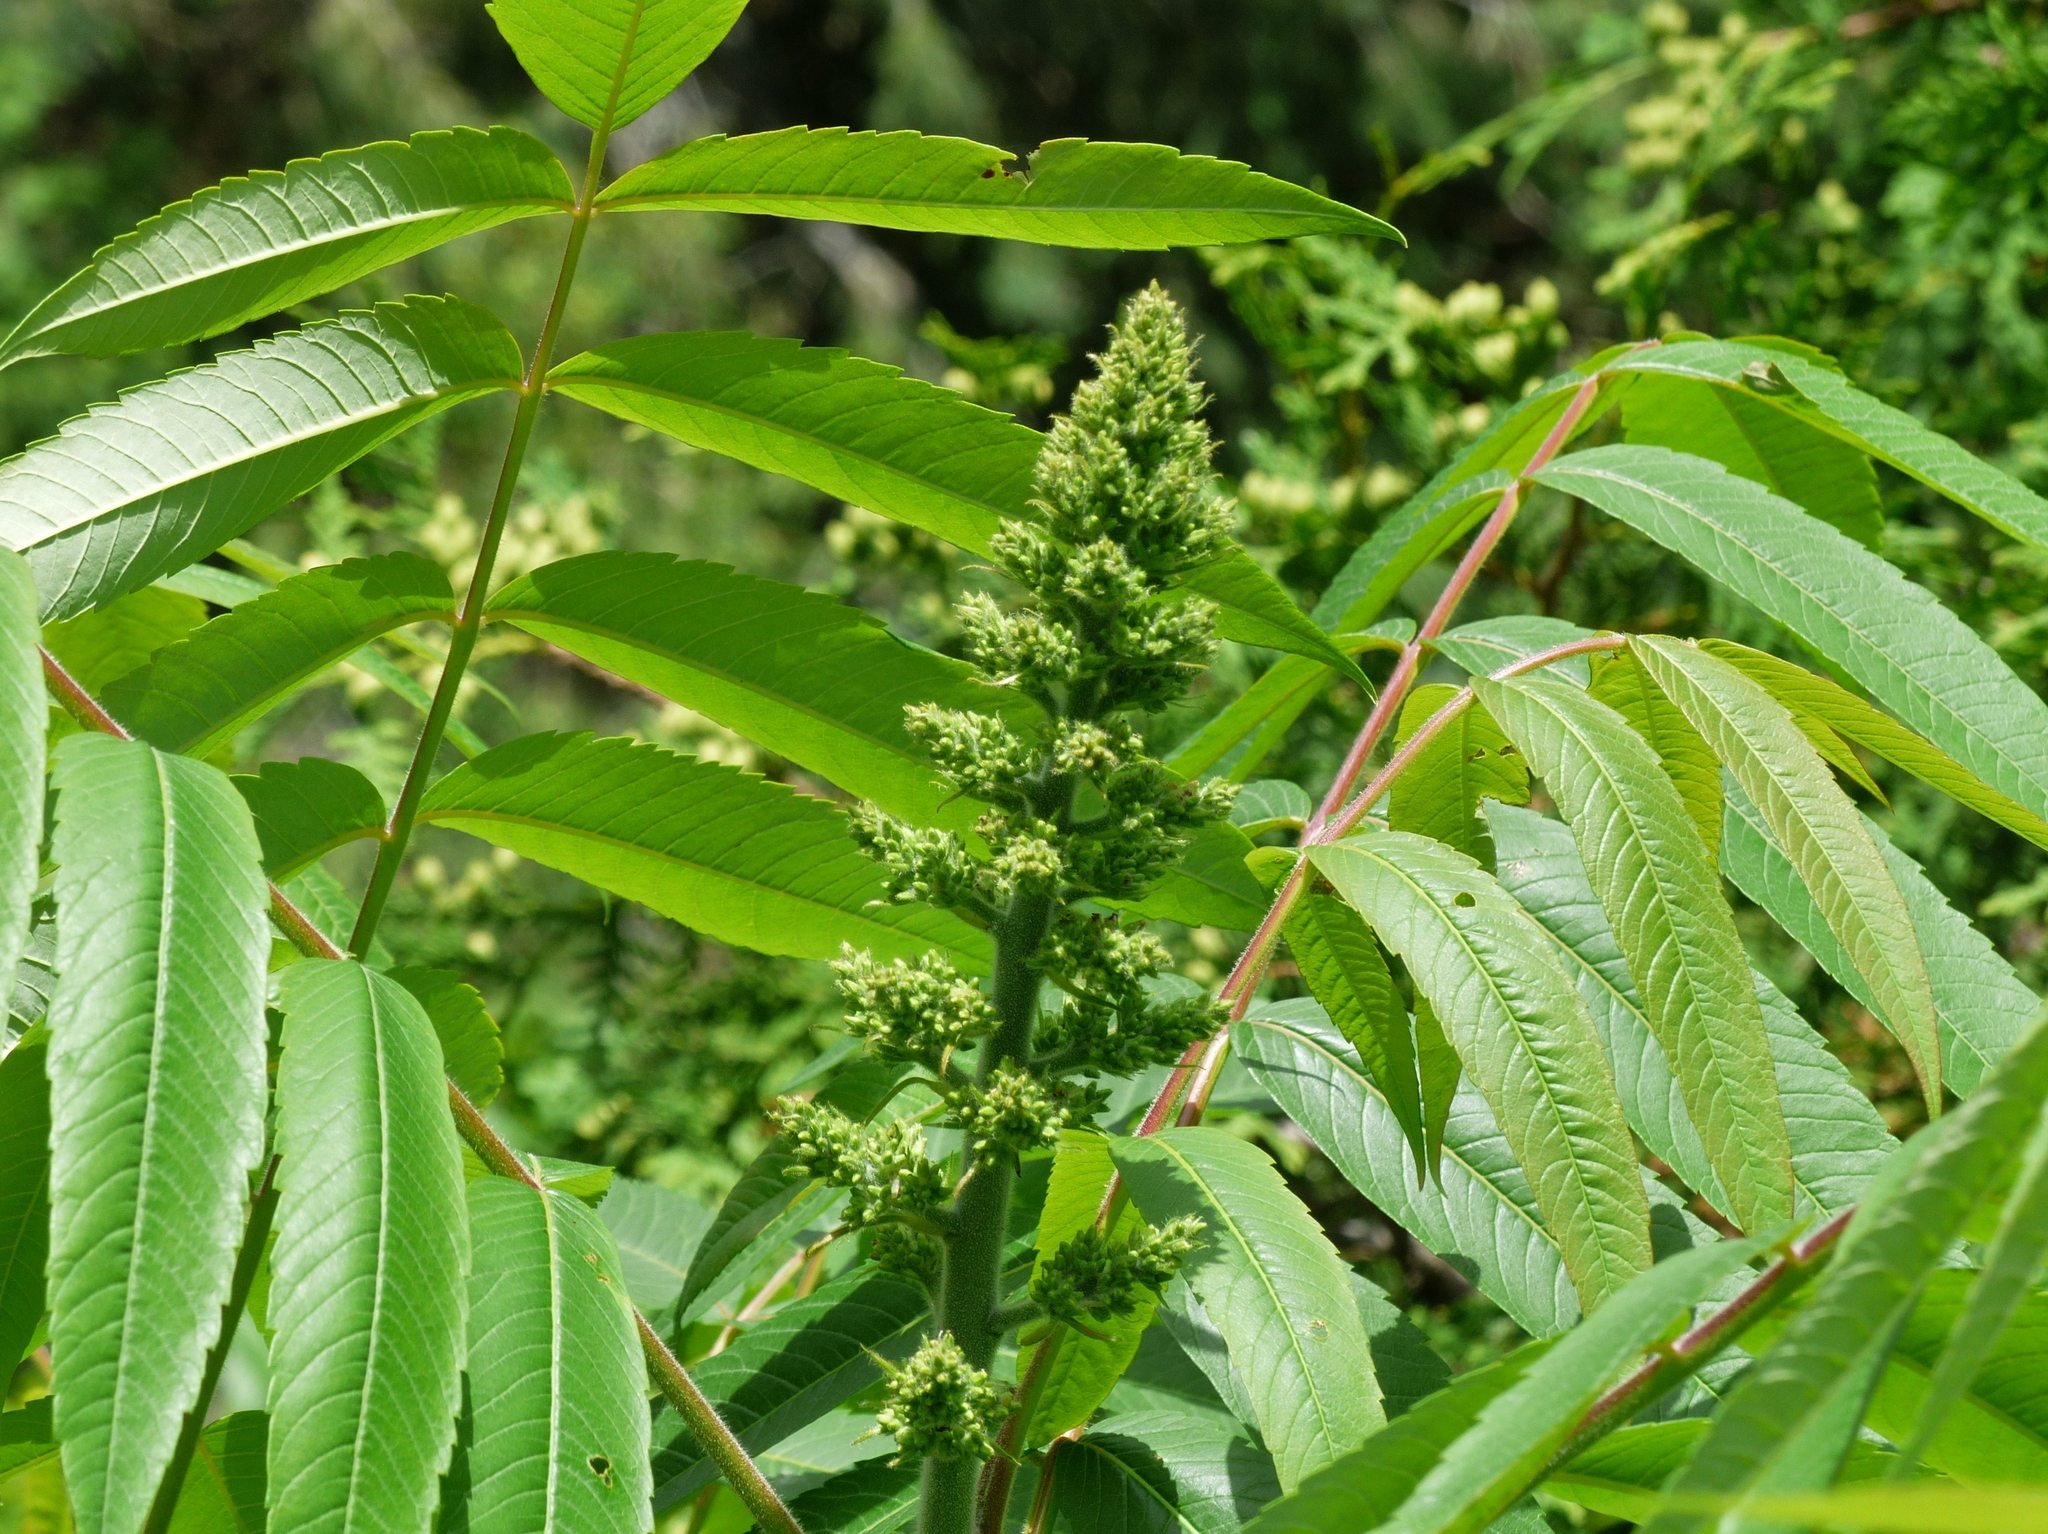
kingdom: Plantae
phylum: Tracheophyta
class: Magnoliopsida
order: Sapindales
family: Anacardiaceae
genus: Rhus
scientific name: Rhus typhina
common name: Staghorn sumac
